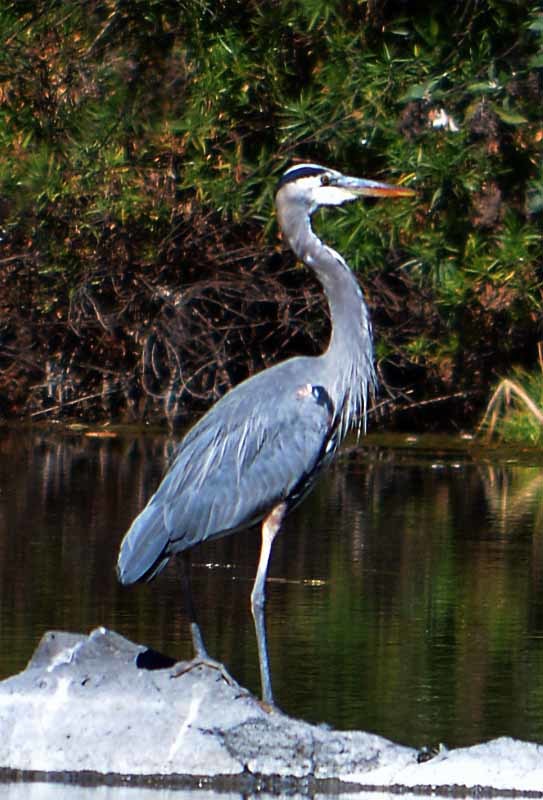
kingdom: Animalia
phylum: Chordata
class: Aves
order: Pelecaniformes
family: Ardeidae
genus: Ardea
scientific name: Ardea herodias
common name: Great blue heron
